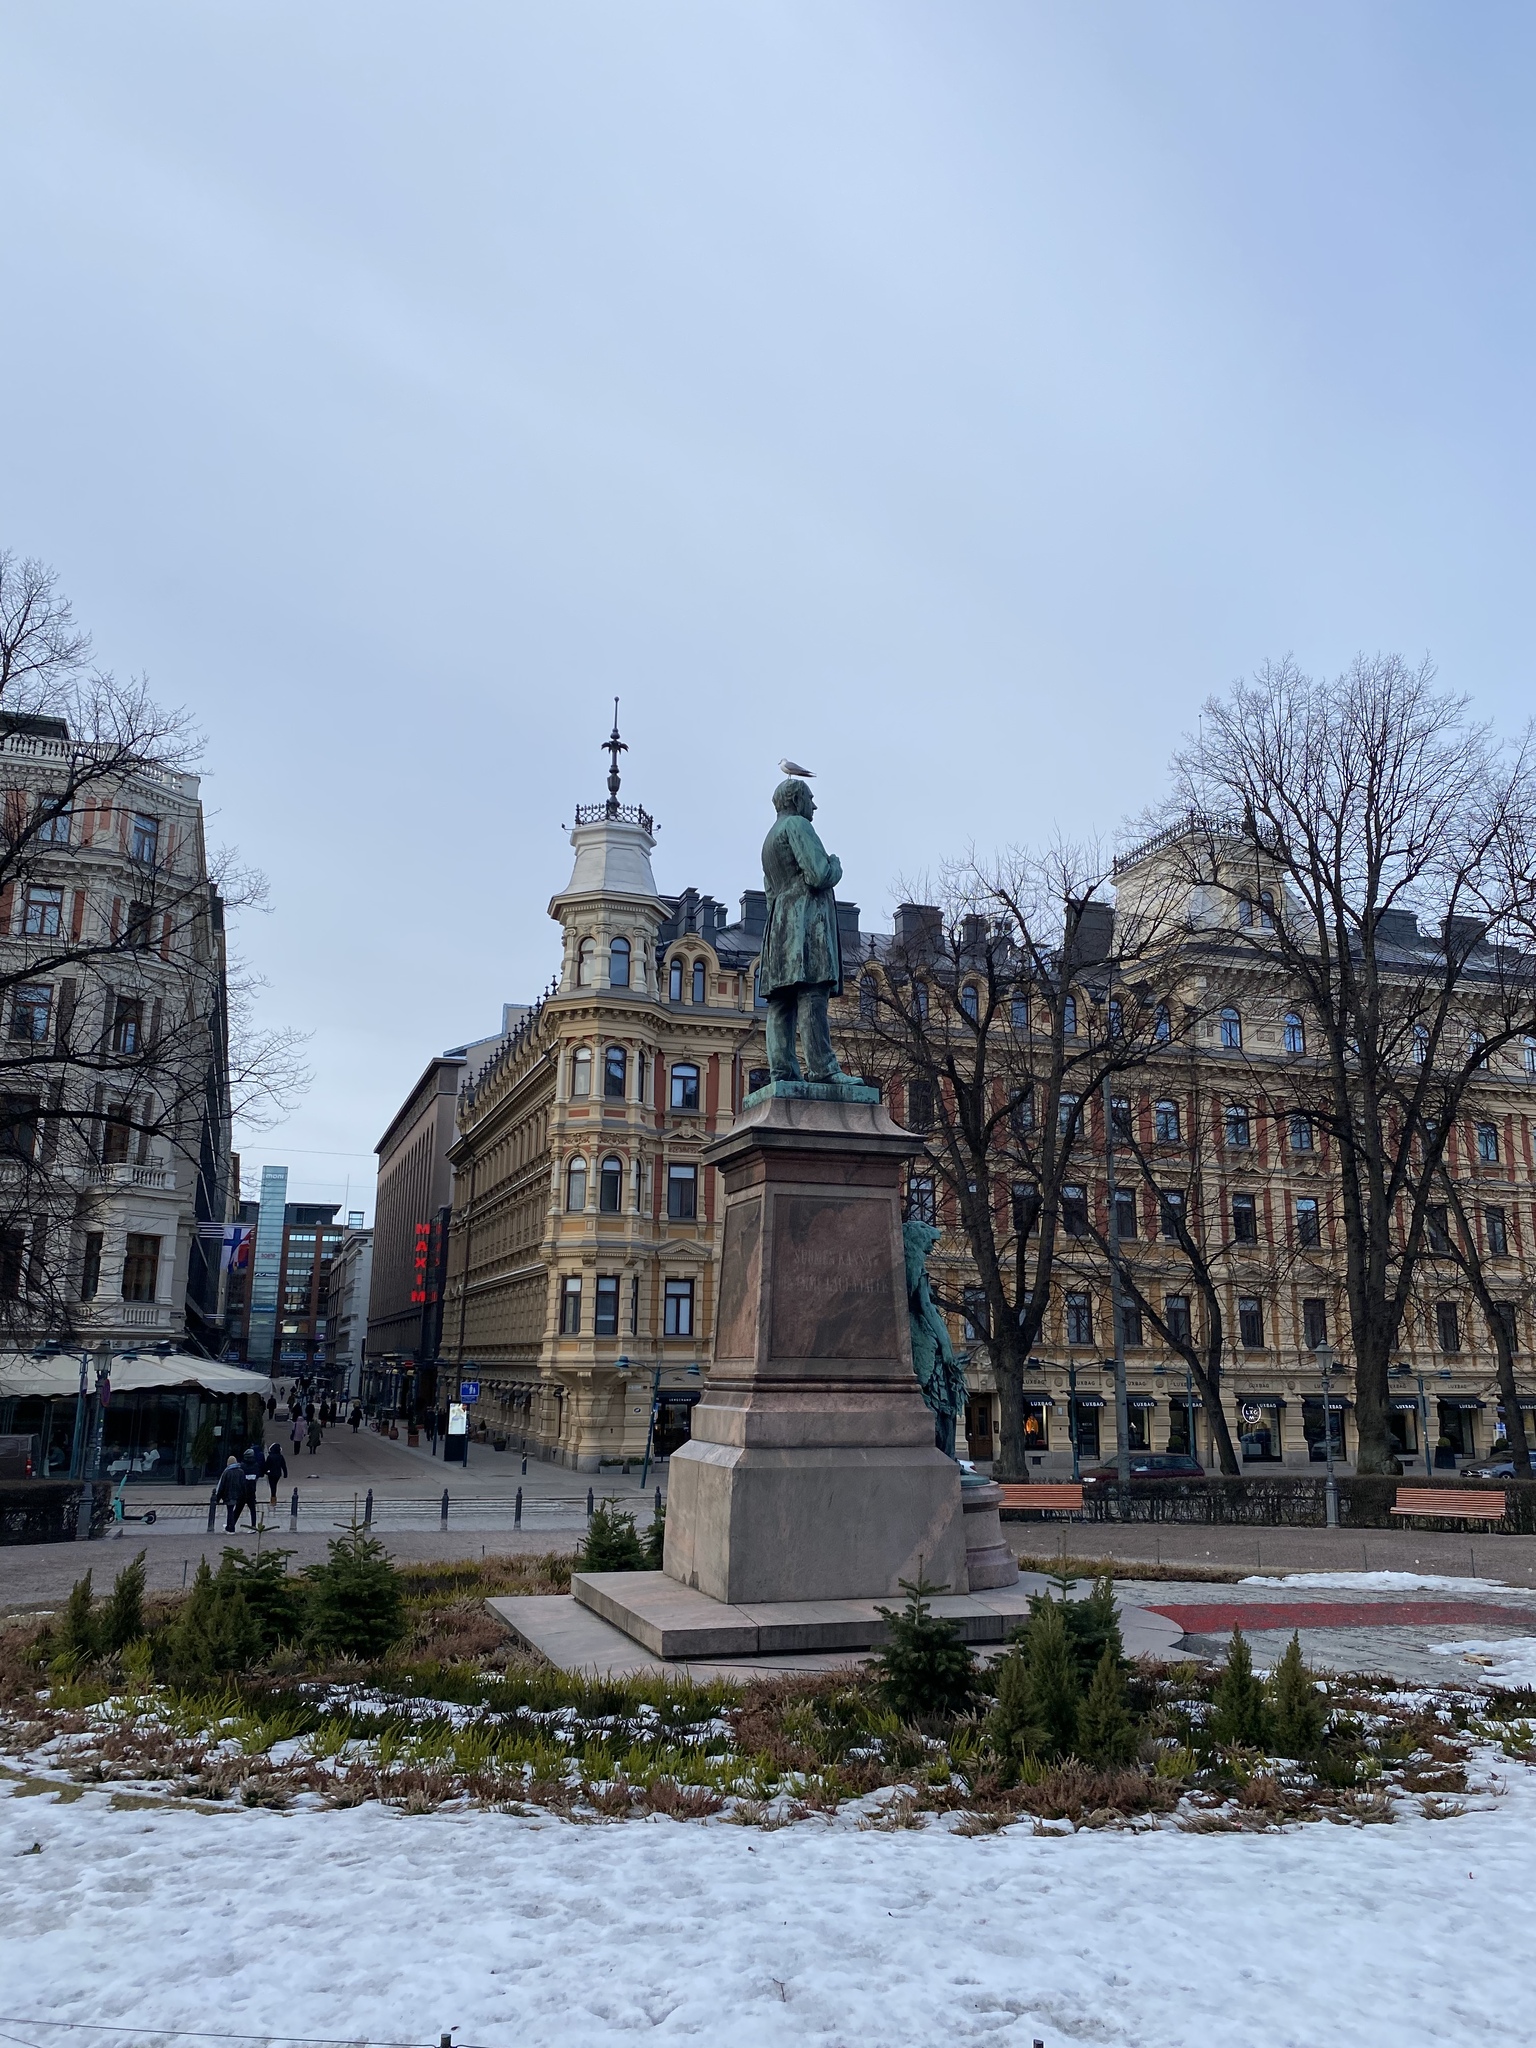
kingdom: Animalia
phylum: Chordata
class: Aves
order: Charadriiformes
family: Laridae
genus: Larus
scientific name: Larus canus
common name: Mew gull
